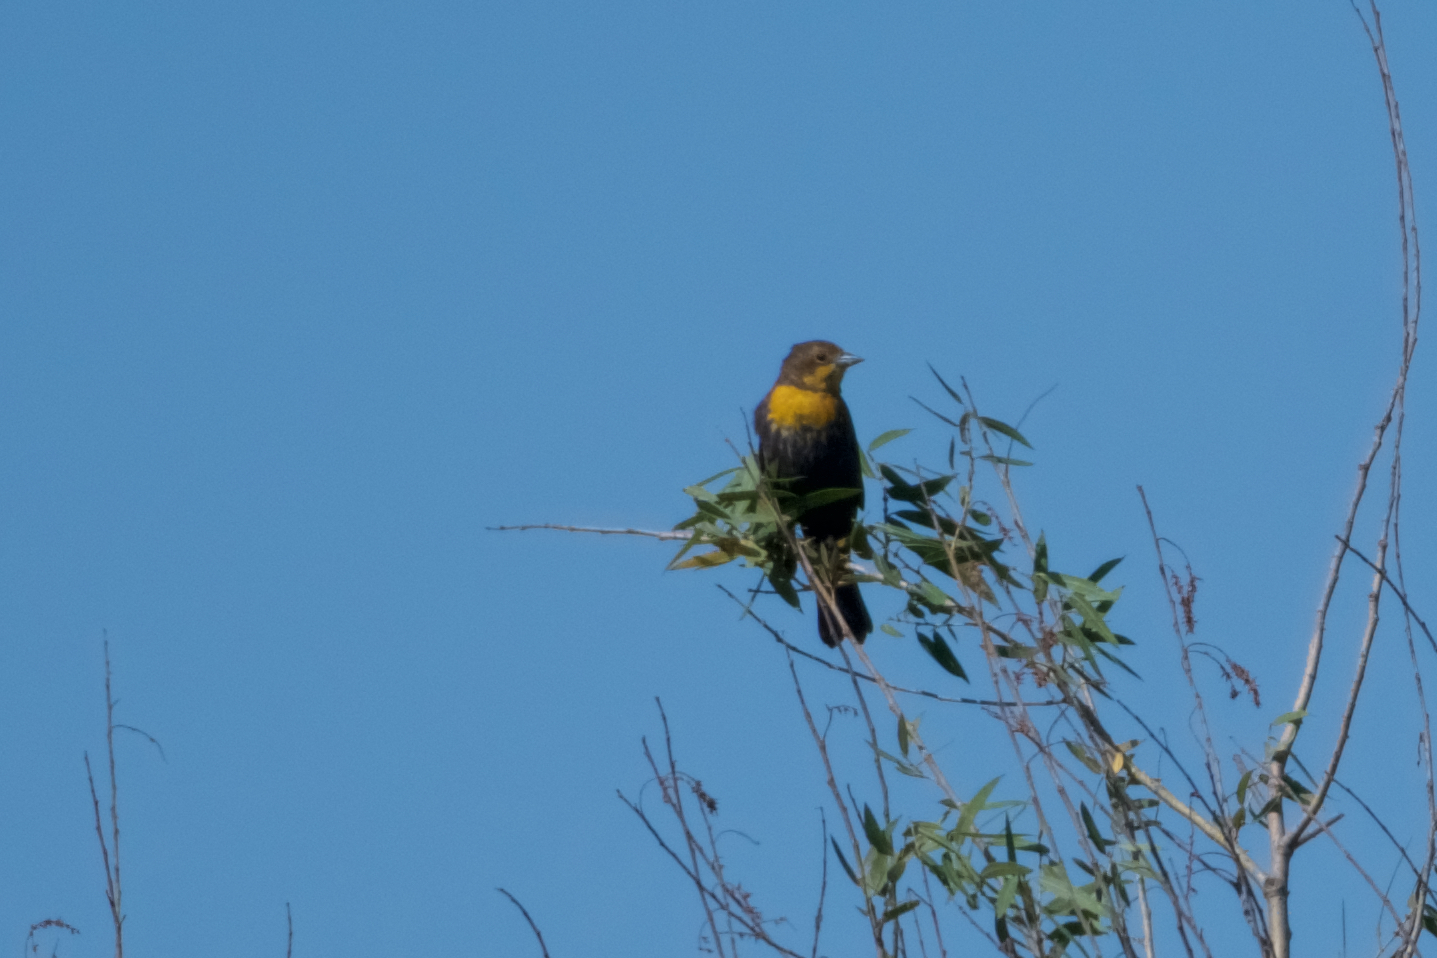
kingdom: Animalia
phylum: Chordata
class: Aves
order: Passeriformes
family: Icteridae
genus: Xanthocephalus
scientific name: Xanthocephalus xanthocephalus
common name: Yellow-headed blackbird
